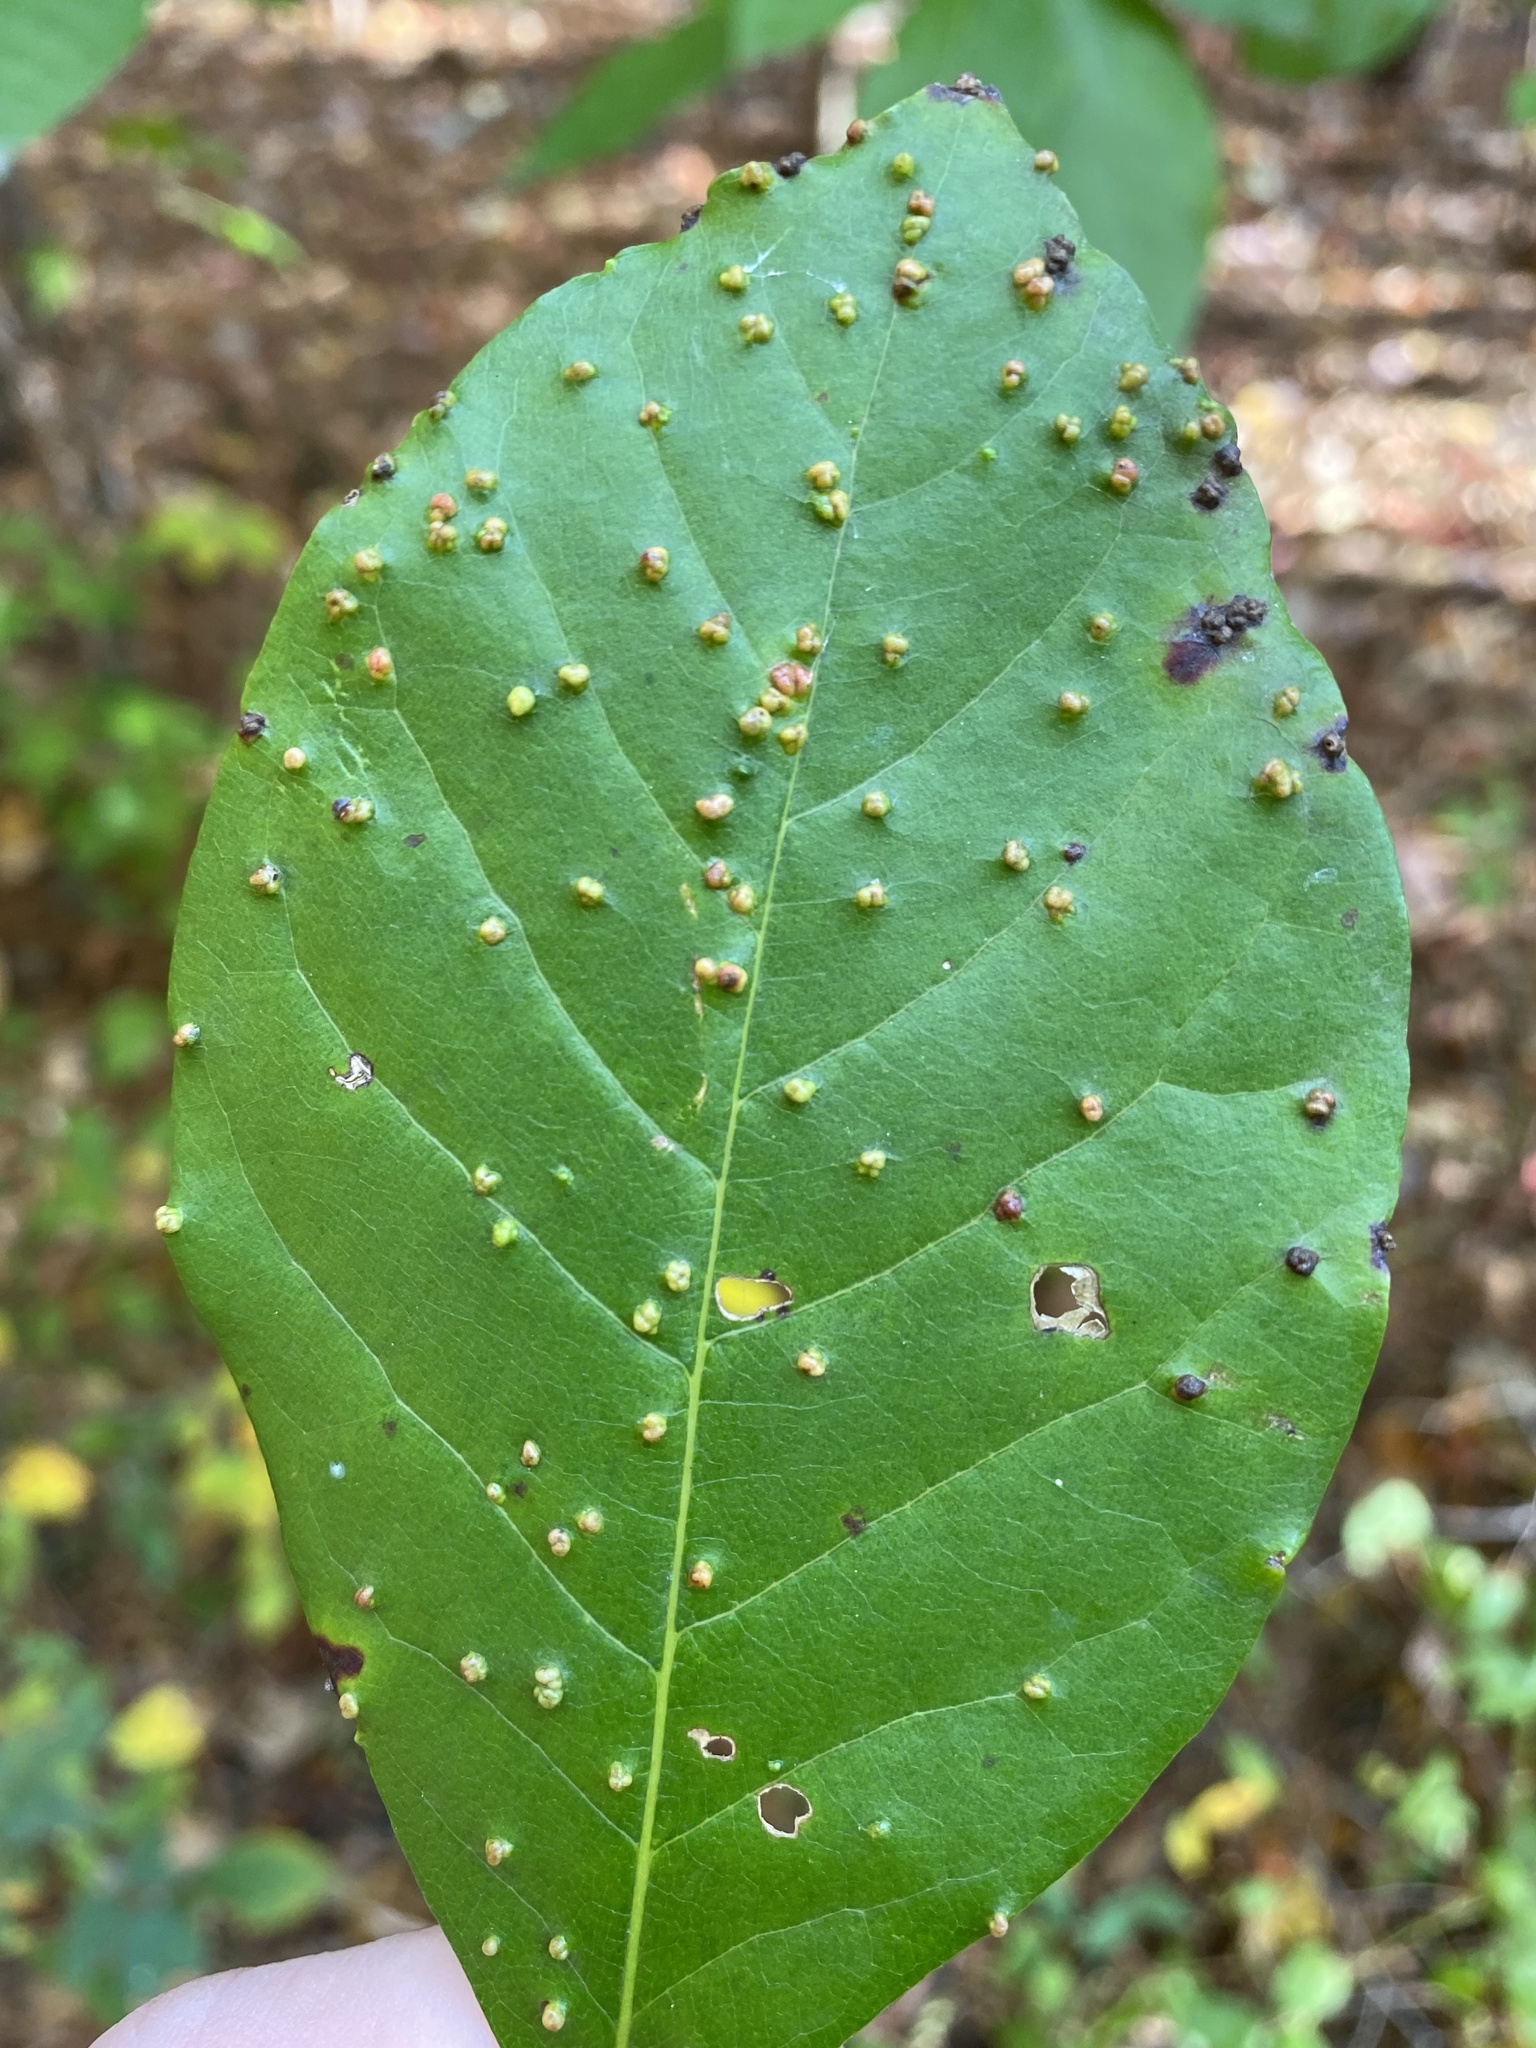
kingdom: Animalia
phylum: Arthropoda
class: Arachnida
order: Trombidiformes
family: Eriophyidae
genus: Aceria
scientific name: Aceria
